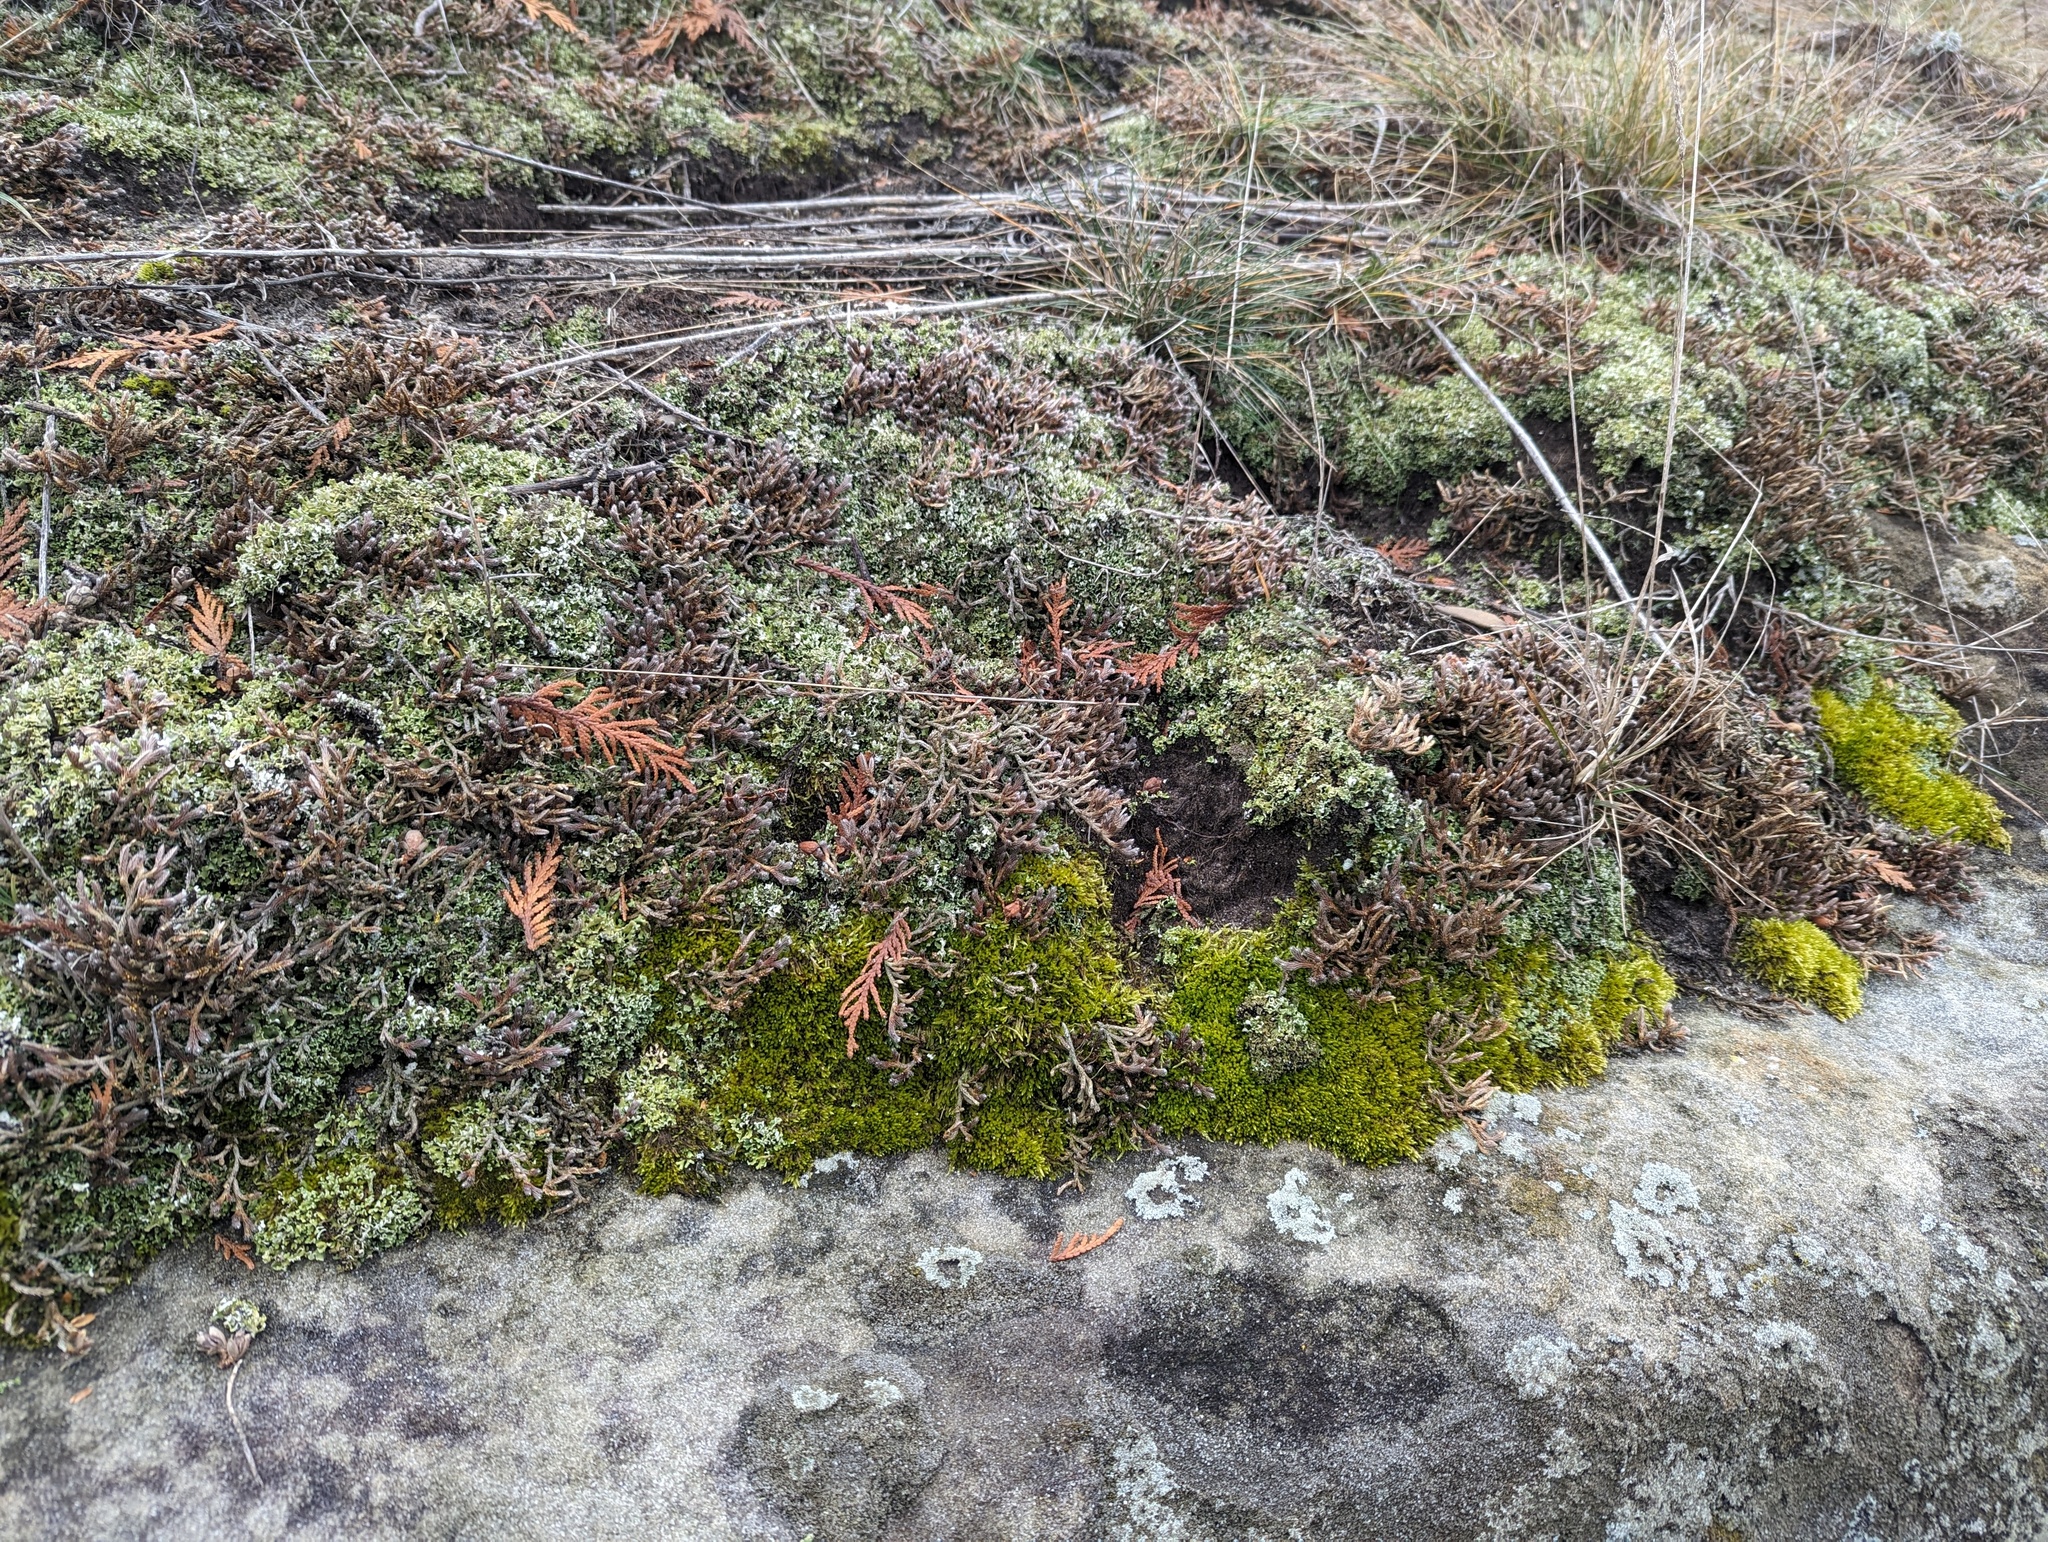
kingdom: Plantae
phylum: Tracheophyta
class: Lycopodiopsida
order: Selaginellales
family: Selaginellaceae
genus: Selaginella
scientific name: Selaginella rupestris
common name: Dwarf spikemoss
